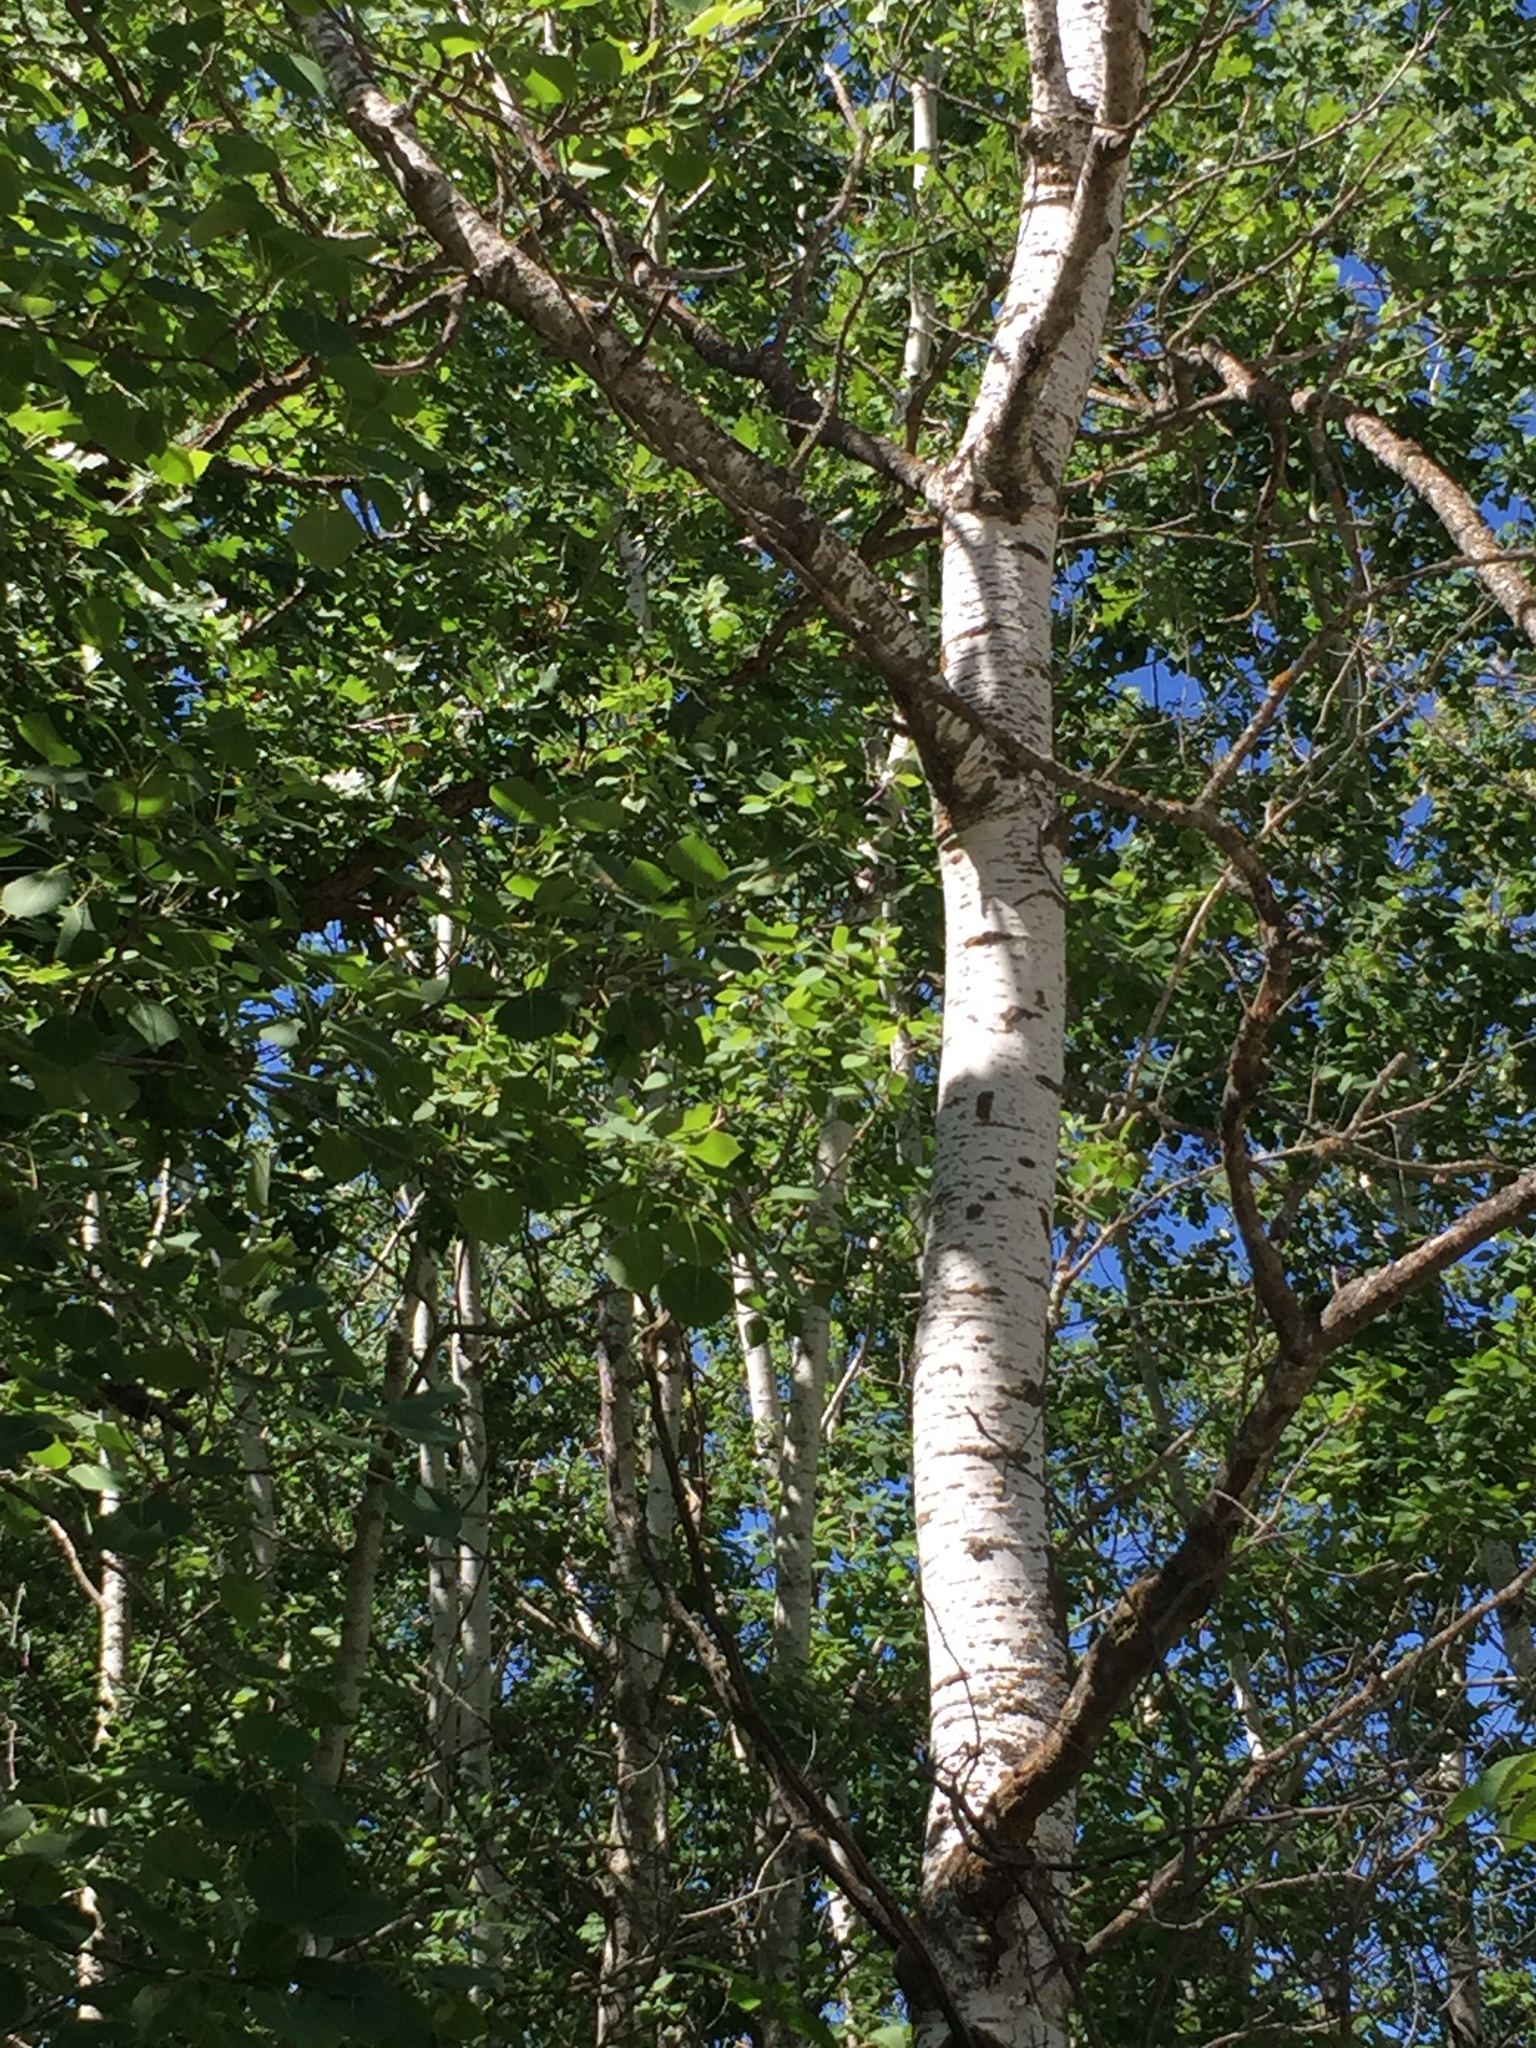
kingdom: Plantae
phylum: Tracheophyta
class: Magnoliopsida
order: Malpighiales
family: Salicaceae
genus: Populus
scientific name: Populus tremuloides
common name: Quaking aspen
